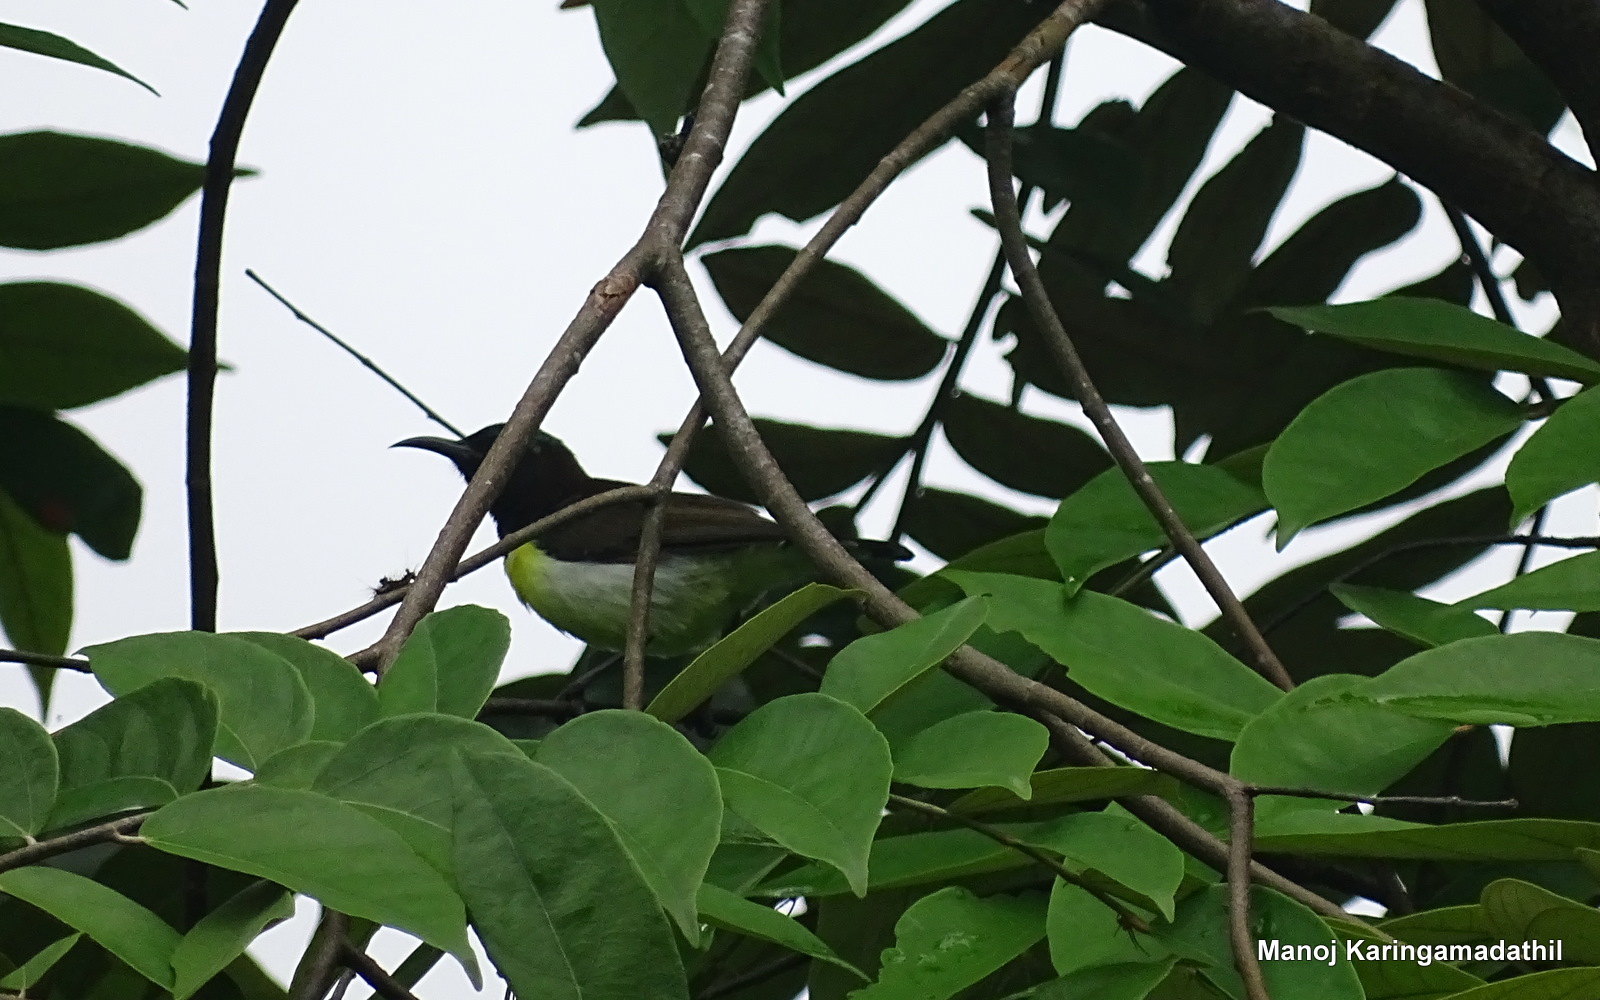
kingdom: Animalia
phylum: Chordata
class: Aves
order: Passeriformes
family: Nectariniidae
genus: Leptocoma
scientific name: Leptocoma zeylonica
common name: Purple-rumped sunbird
